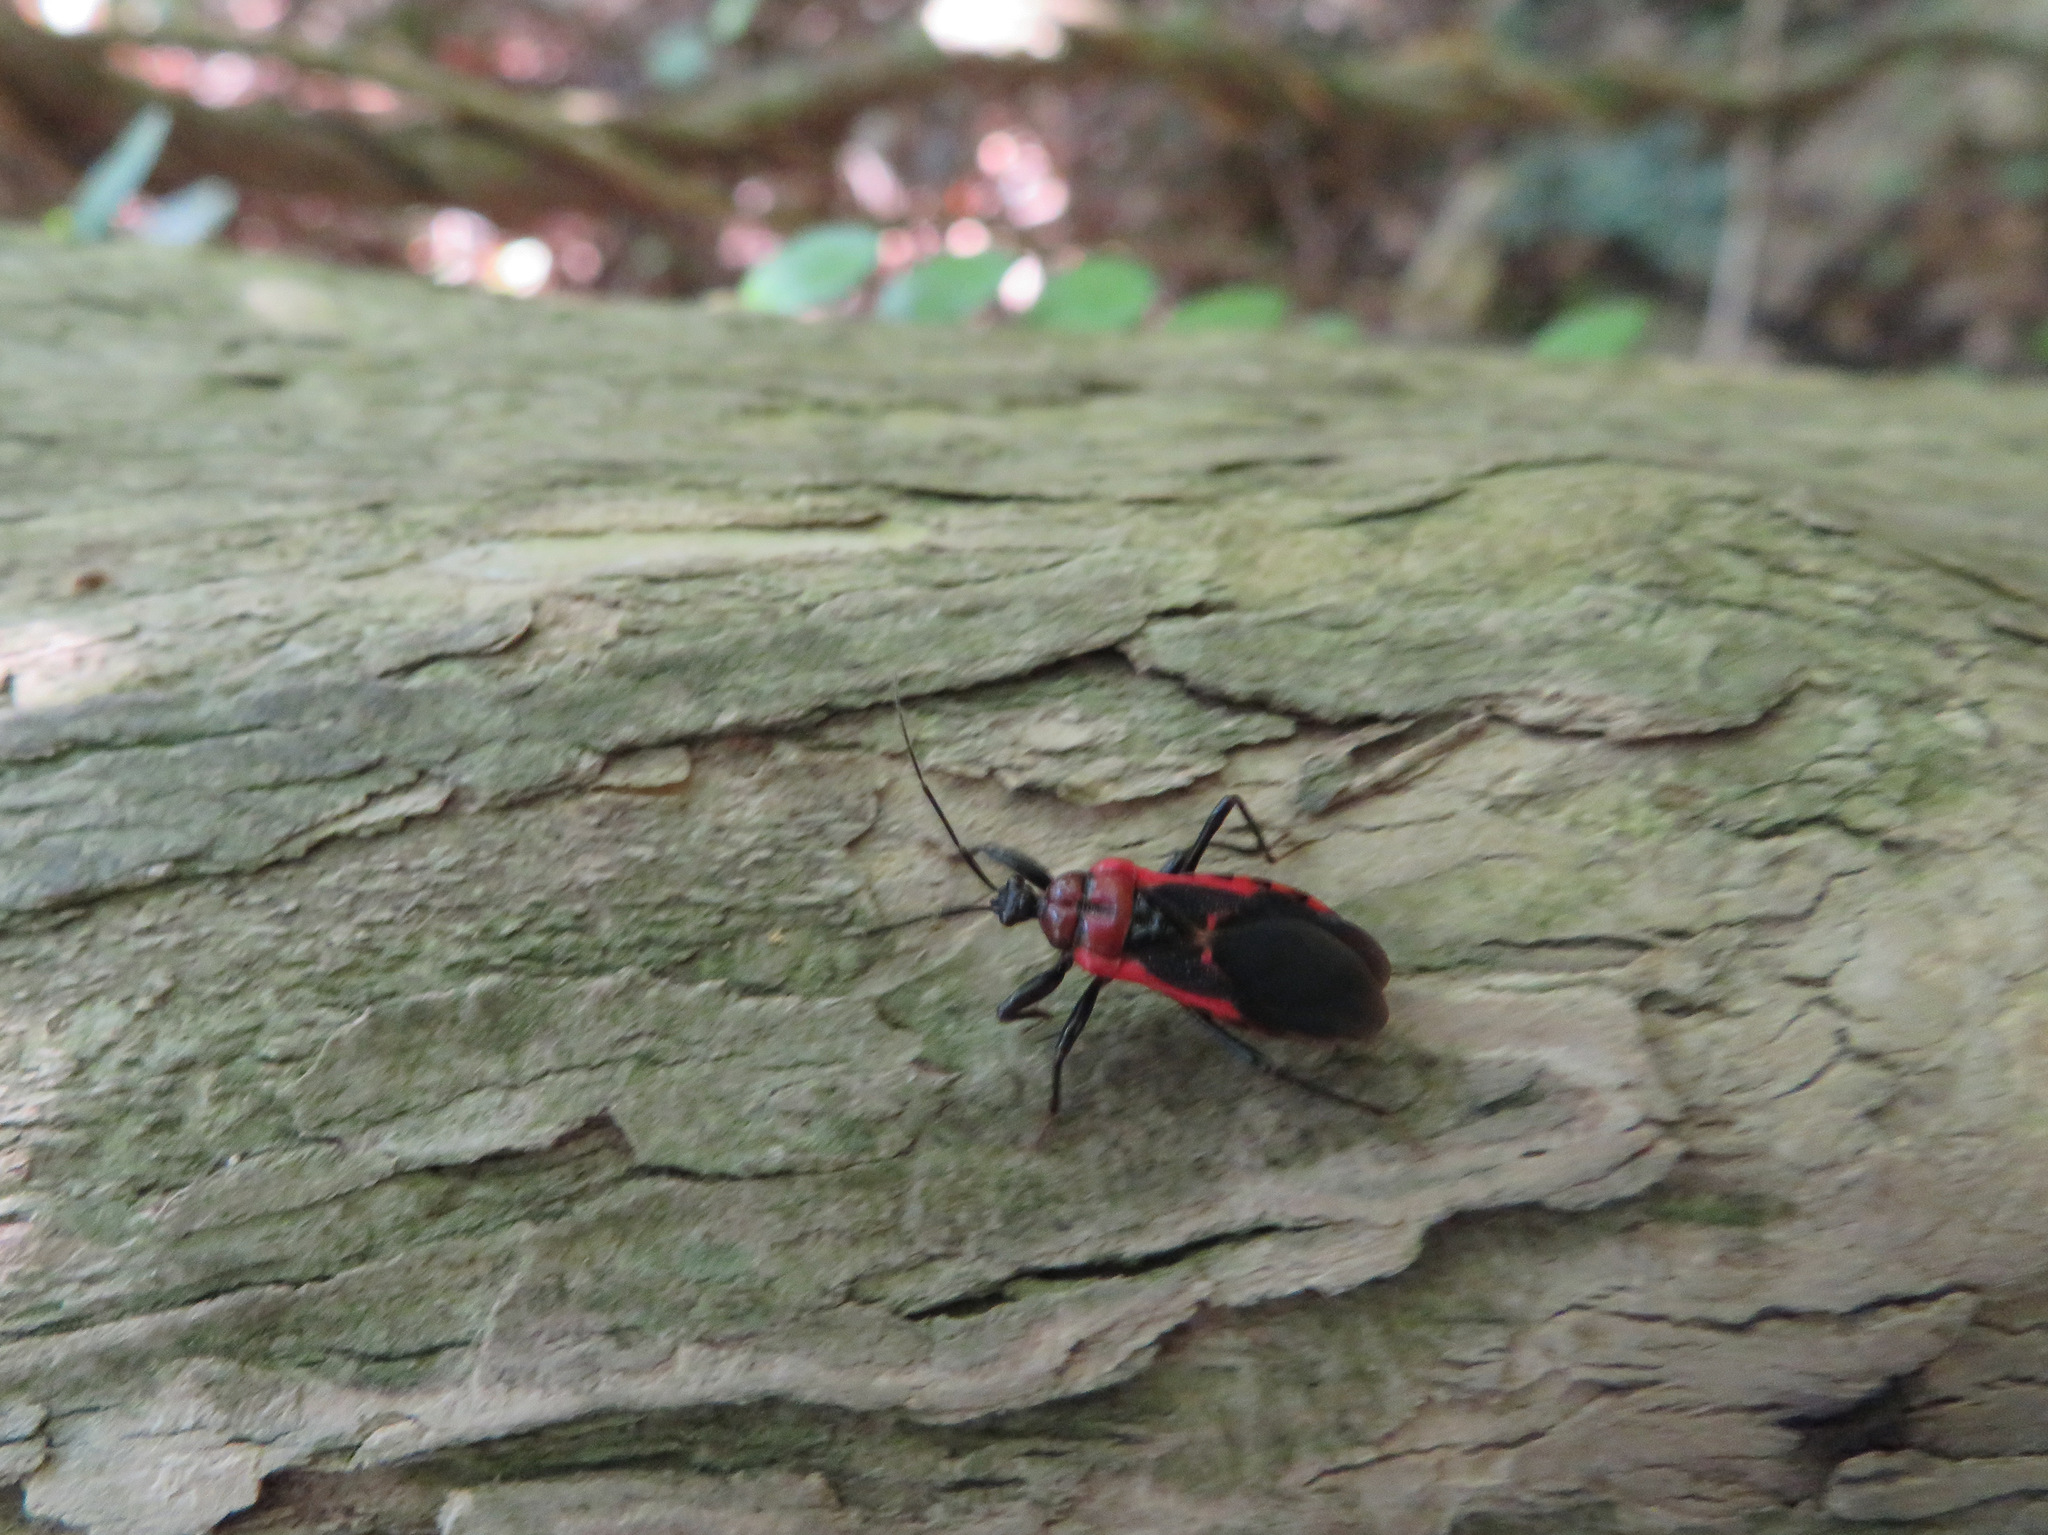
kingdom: Animalia
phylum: Arthropoda
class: Insecta
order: Hemiptera
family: Reduviidae
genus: Haematoloecha
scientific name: Haematoloecha nigrorufa
